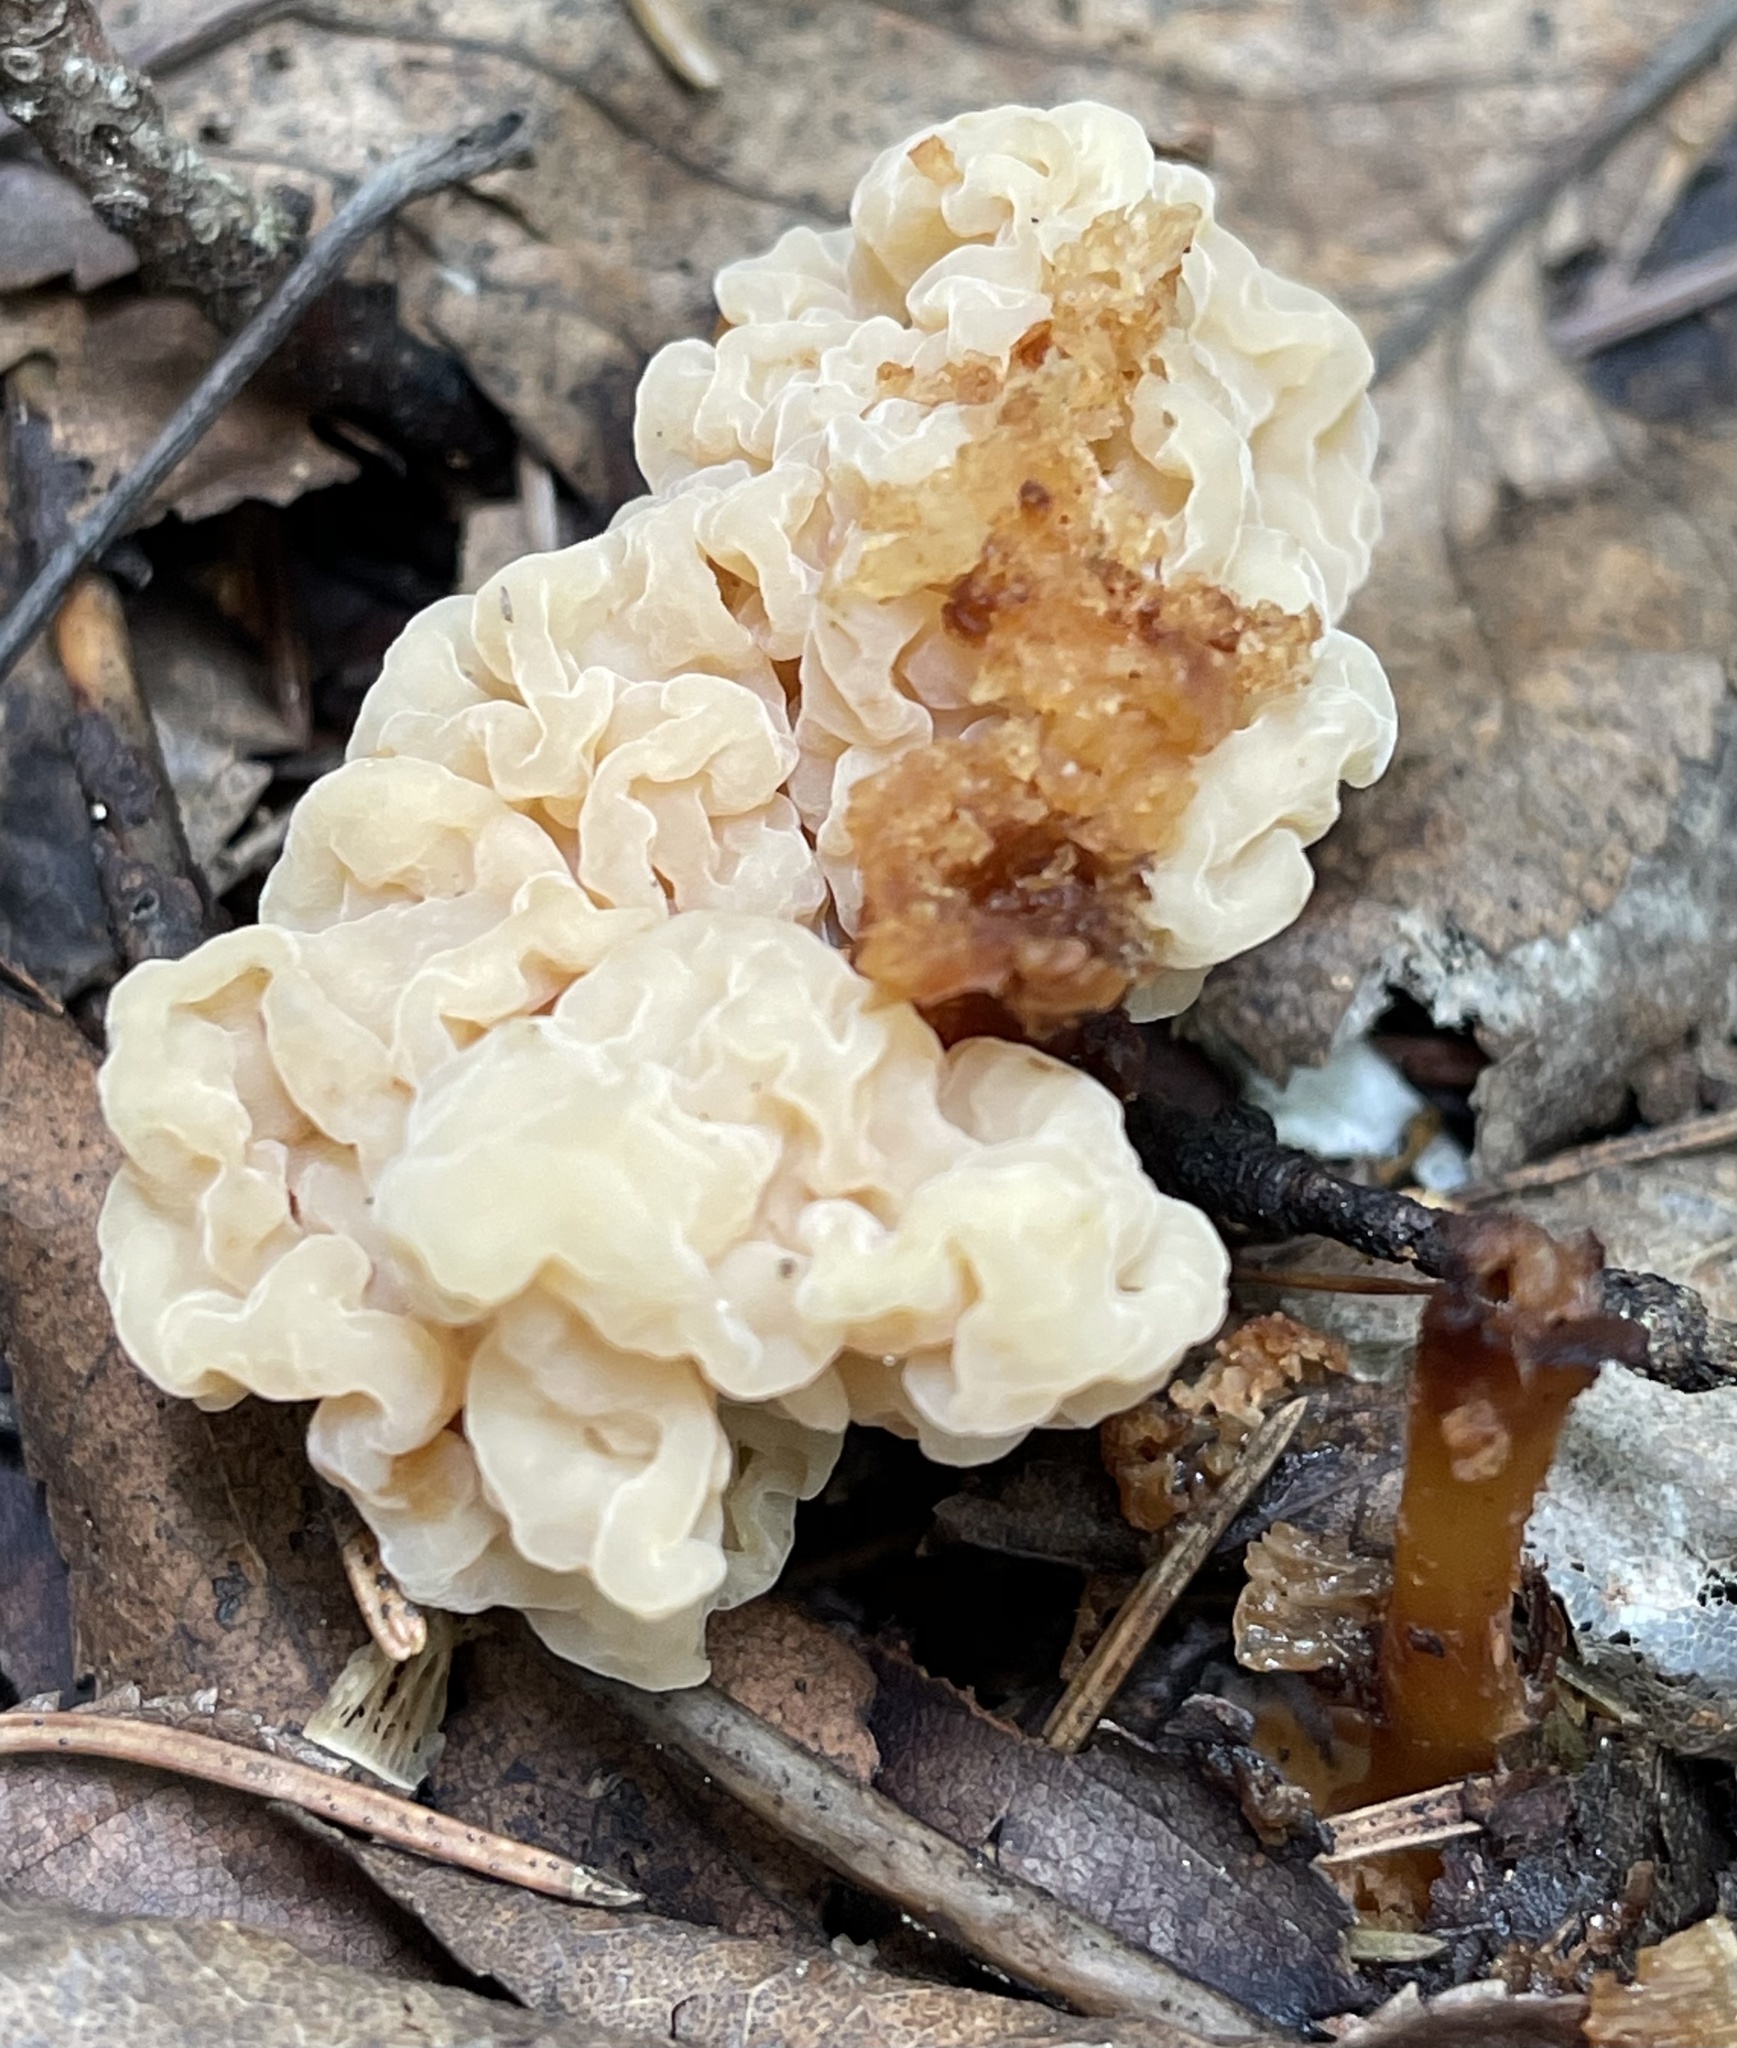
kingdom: Fungi
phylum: Basidiomycota
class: Tremellomycetes
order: Filobasidiales
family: Filobasidiaceae
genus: Syzygospora
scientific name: Syzygospora mycetophila
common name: Collybia clouds
